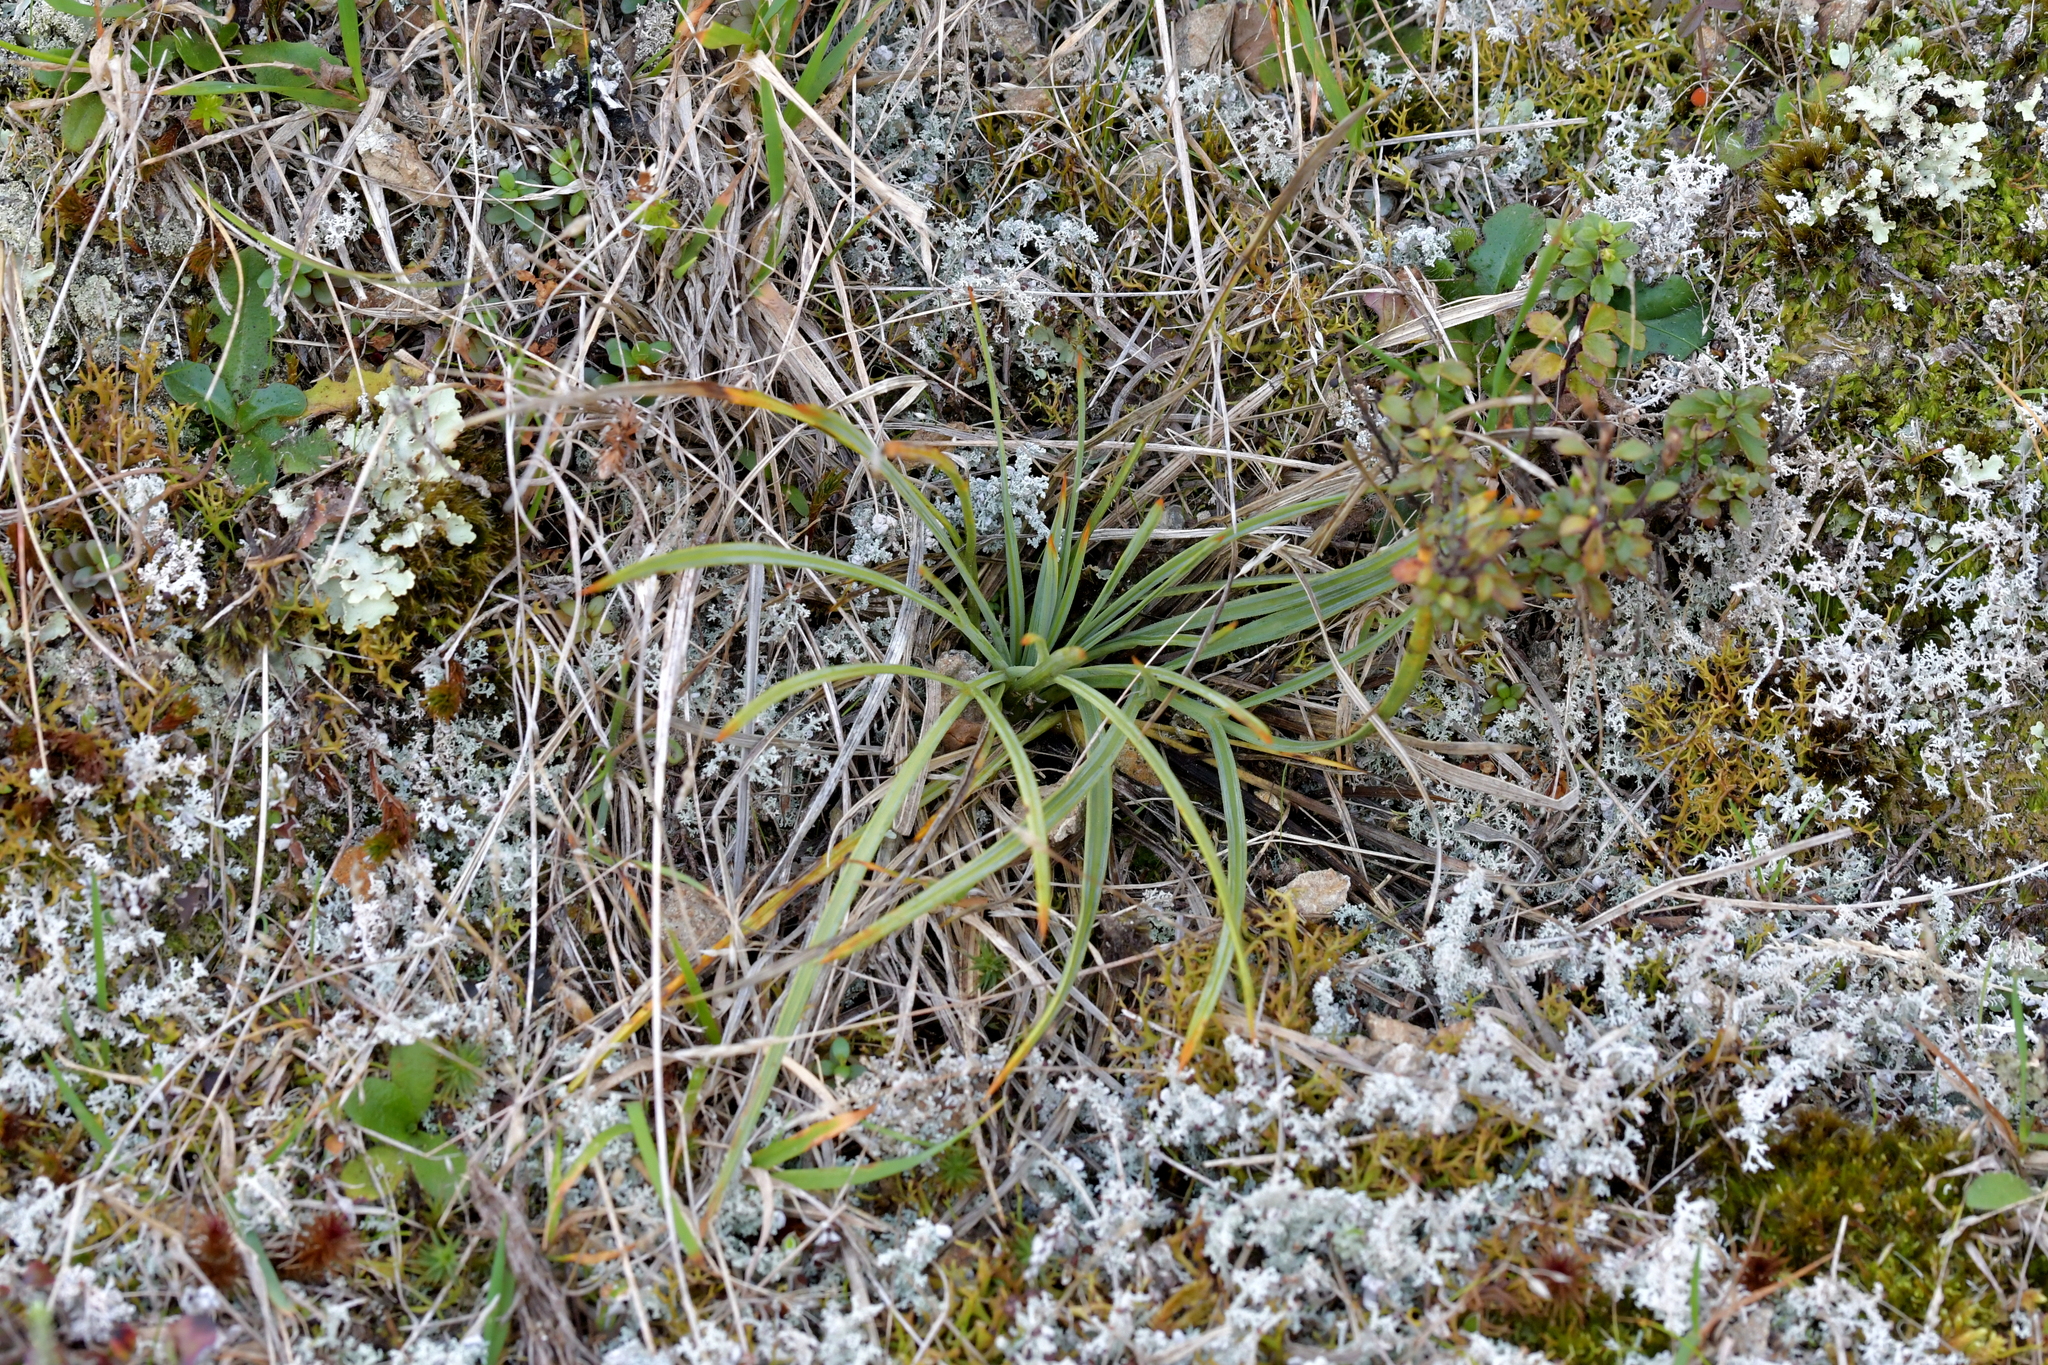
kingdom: Plantae
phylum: Tracheophyta
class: Magnoliopsida
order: Apiales
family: Apiaceae
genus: Aciphylla
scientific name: Aciphylla squarrosa
